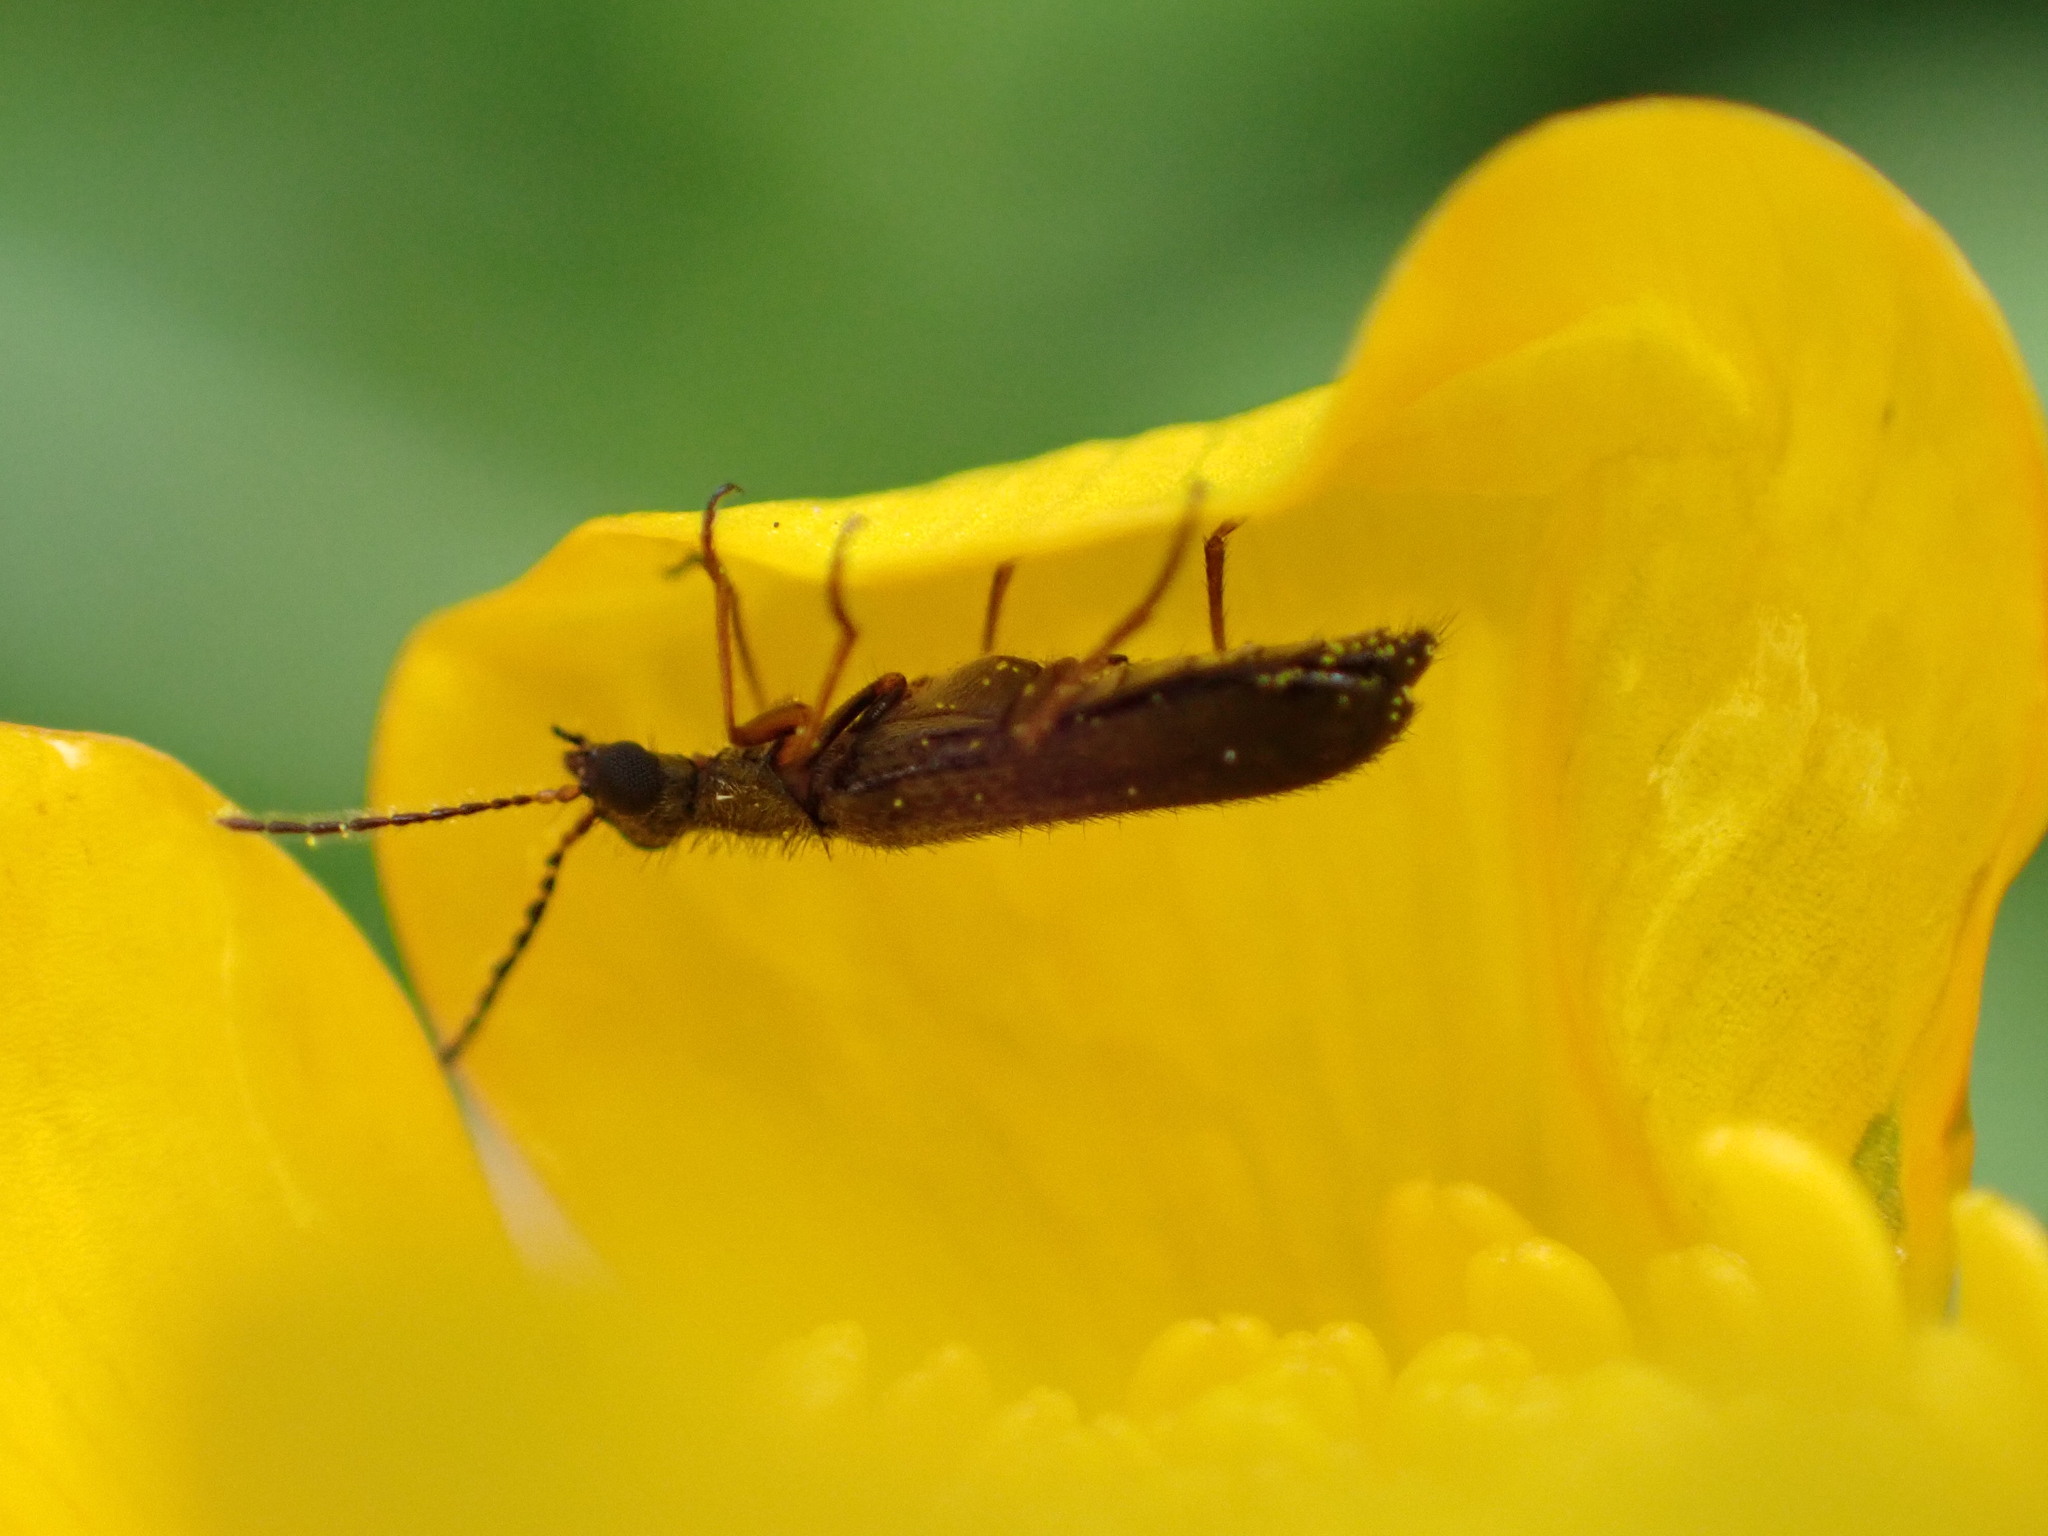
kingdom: Animalia
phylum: Arthropoda
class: Insecta
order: Coleoptera
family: Melyridae
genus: Dasytes
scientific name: Dasytes plumbeus
